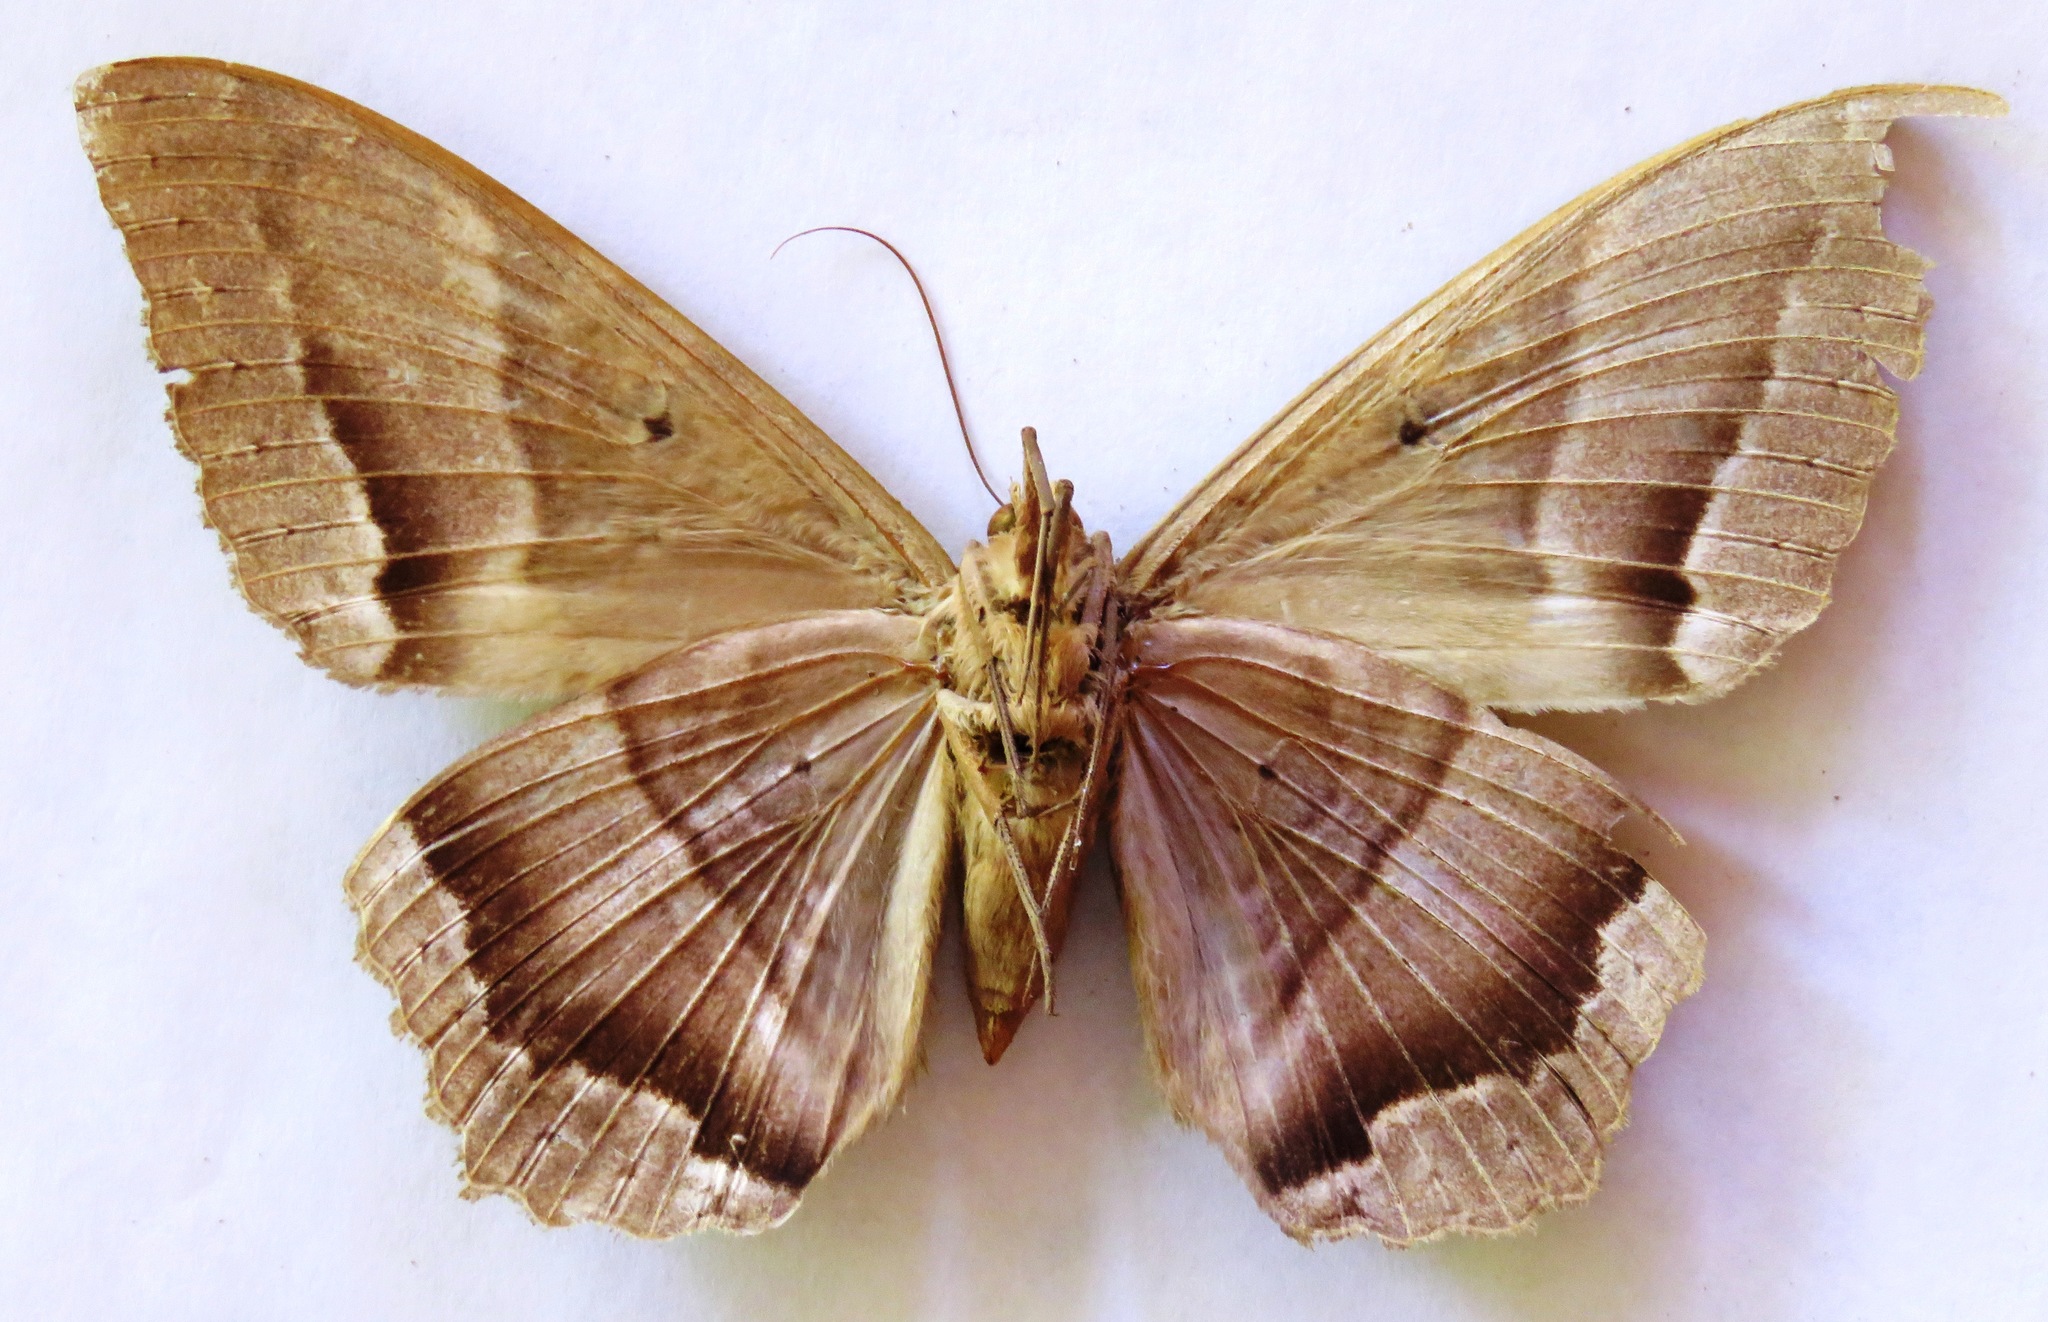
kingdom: Animalia
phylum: Arthropoda
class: Insecta
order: Lepidoptera
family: Erebidae
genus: Ascalapha
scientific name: Ascalapha odorata
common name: Black witch
